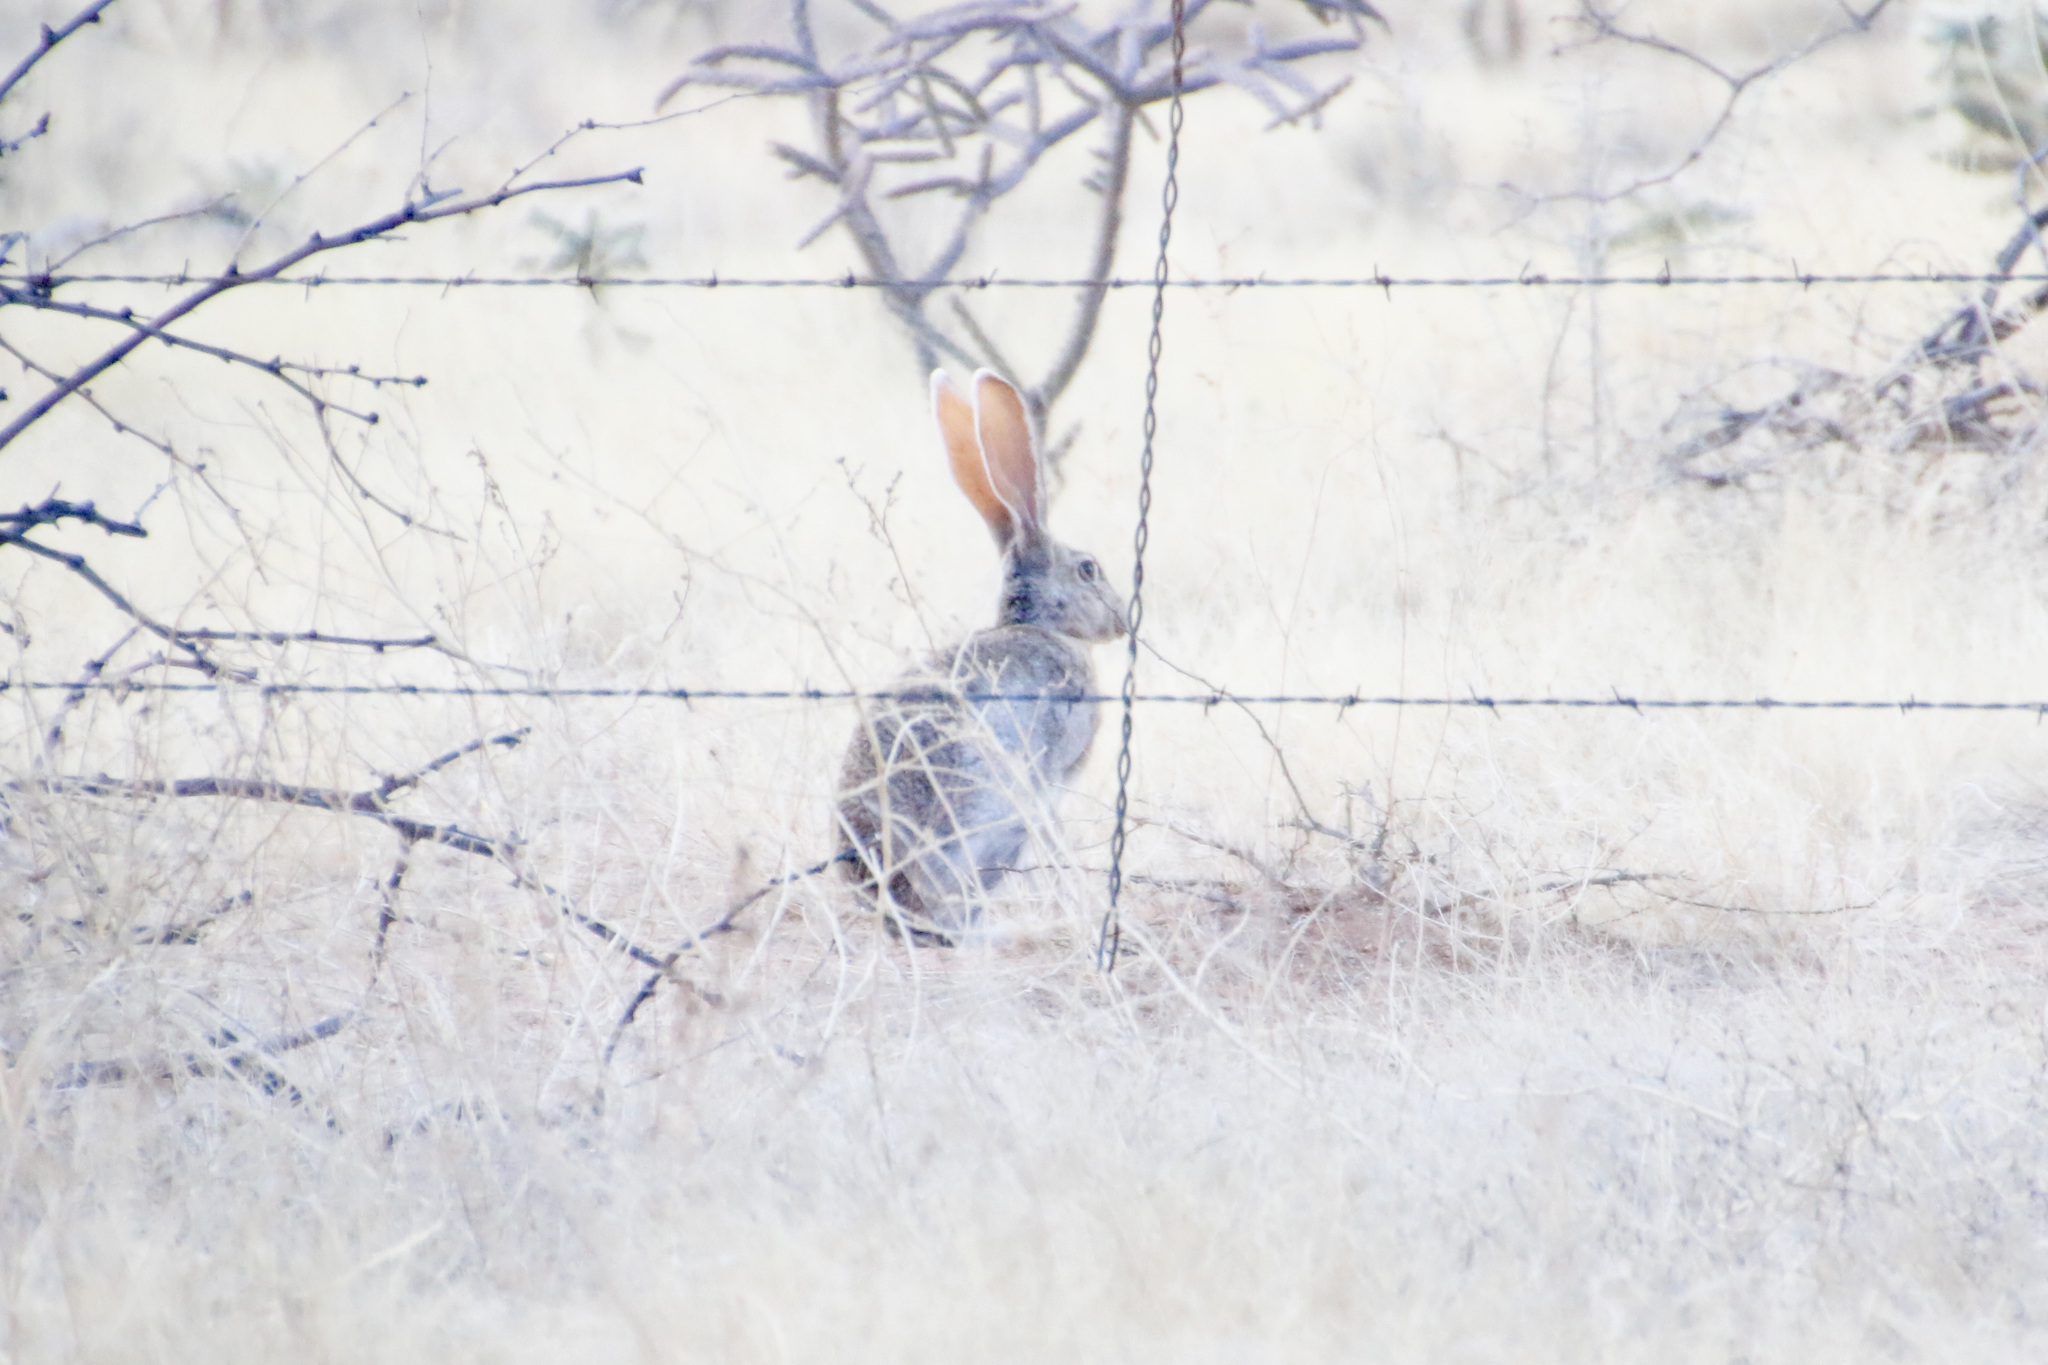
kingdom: Animalia
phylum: Chordata
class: Mammalia
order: Lagomorpha
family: Leporidae
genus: Lepus
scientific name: Lepus alleni
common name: Antelope jackrabbit
